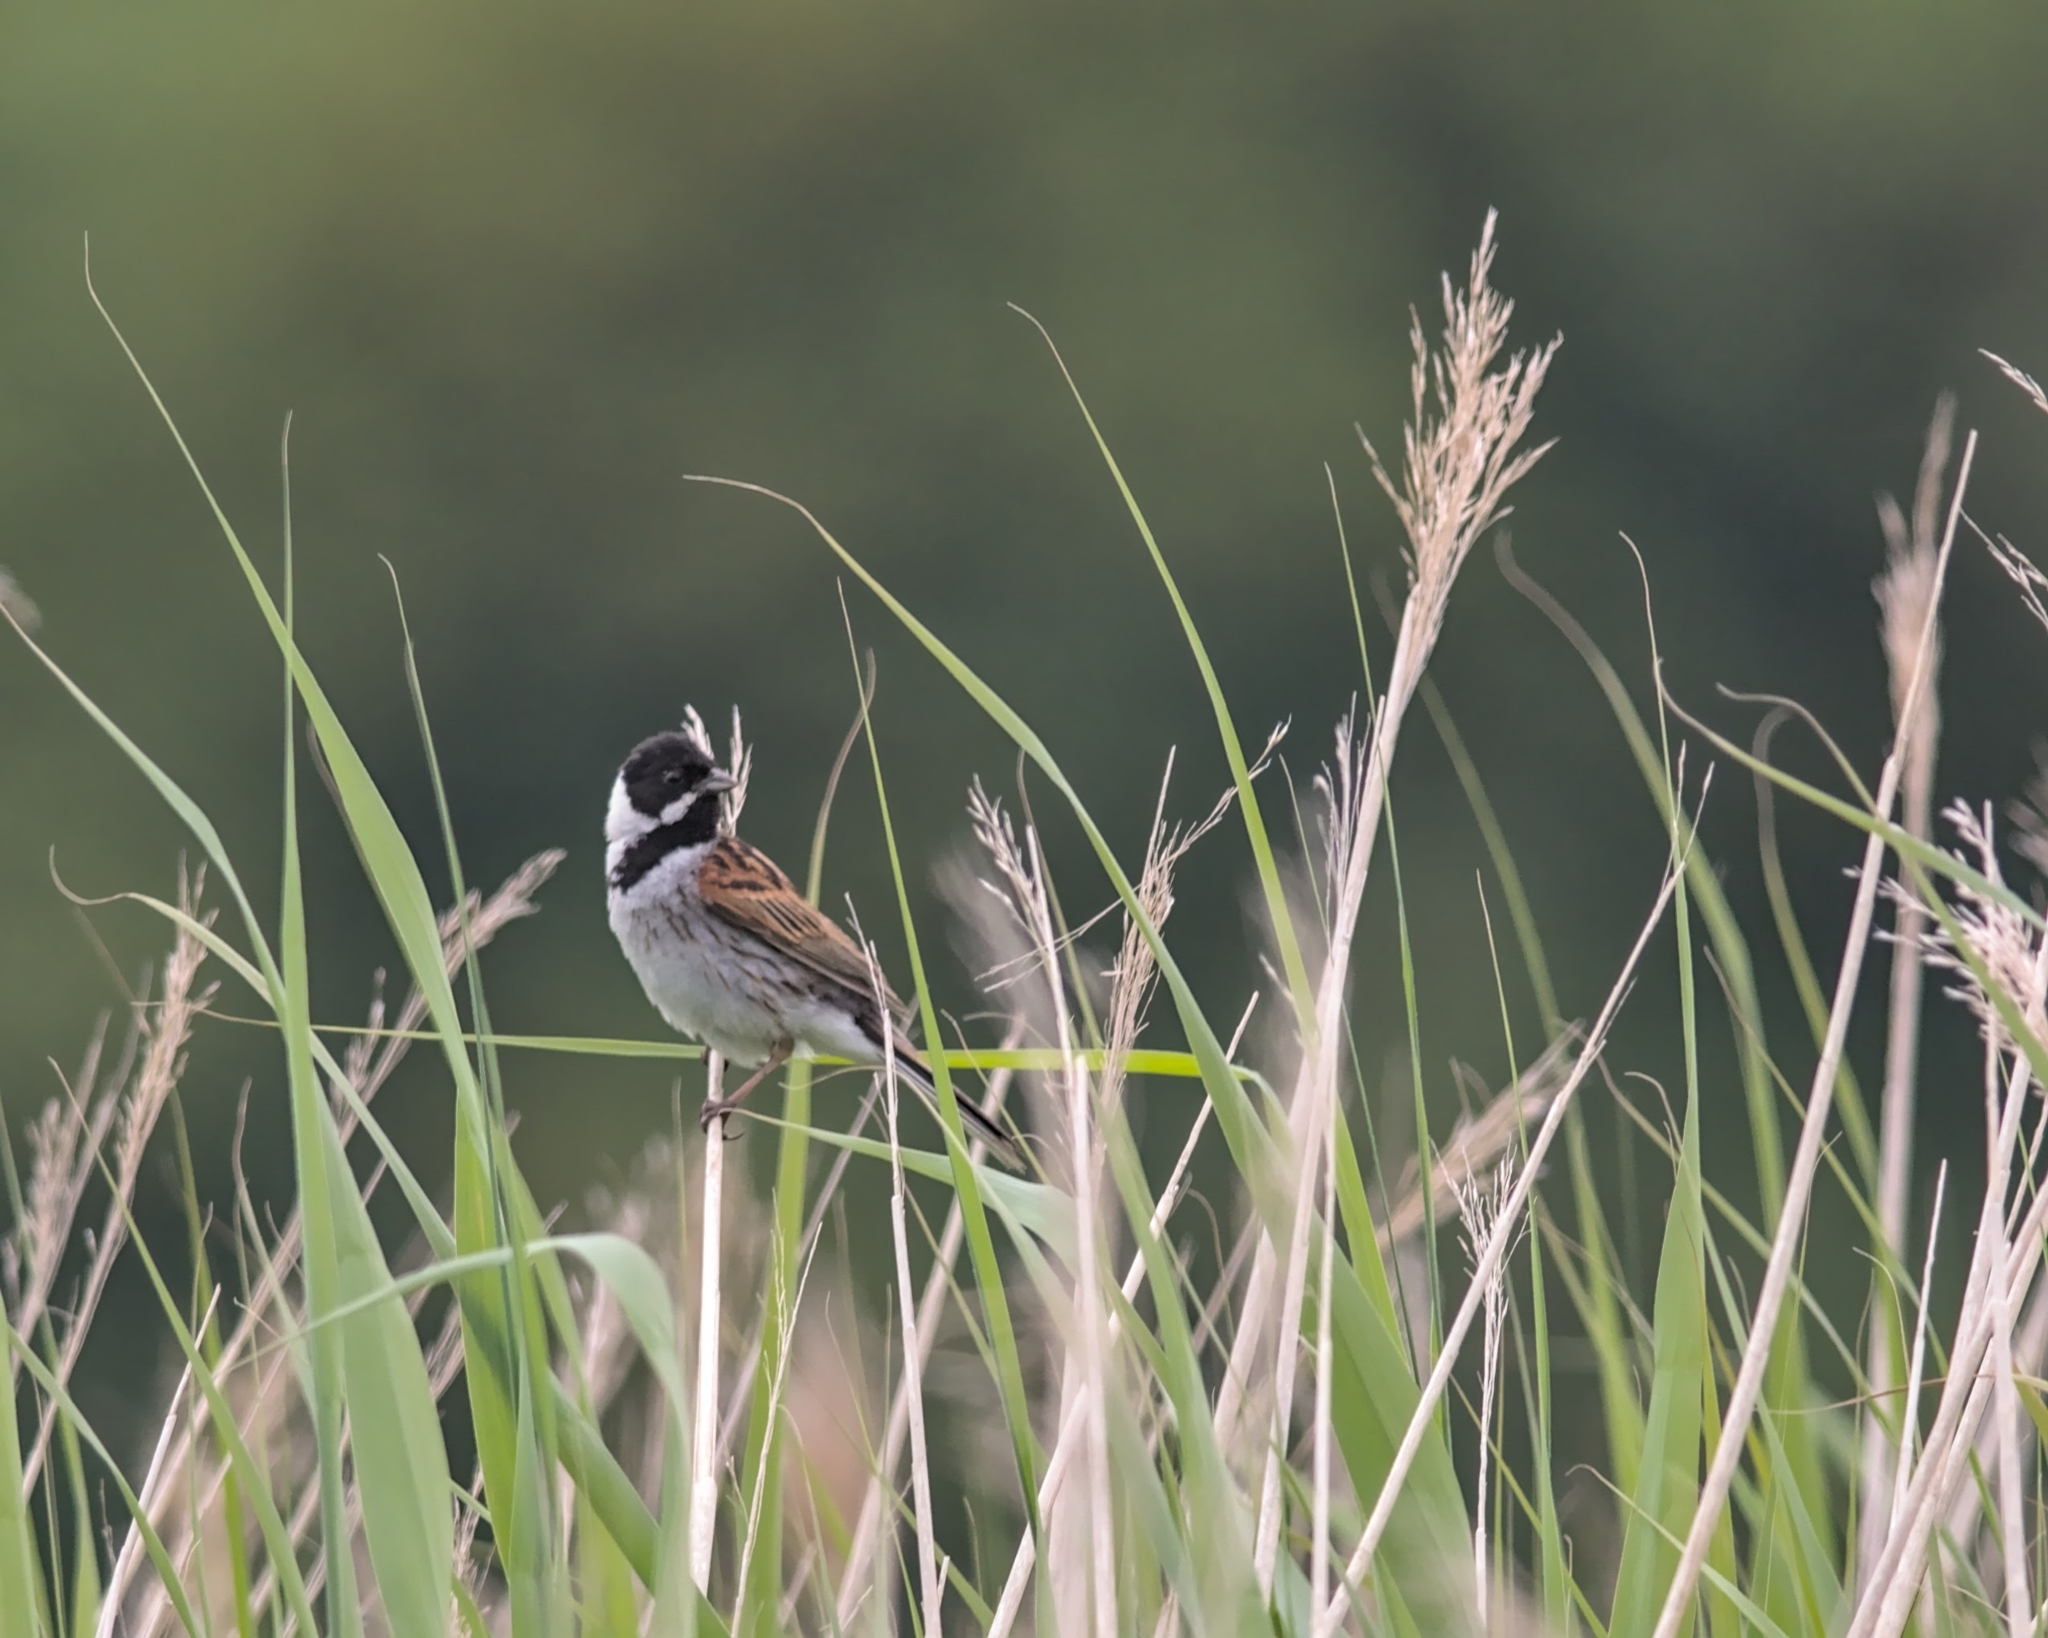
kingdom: Animalia
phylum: Chordata
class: Aves
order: Passeriformes
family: Emberizidae
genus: Emberiza
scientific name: Emberiza schoeniclus
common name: Reed bunting
